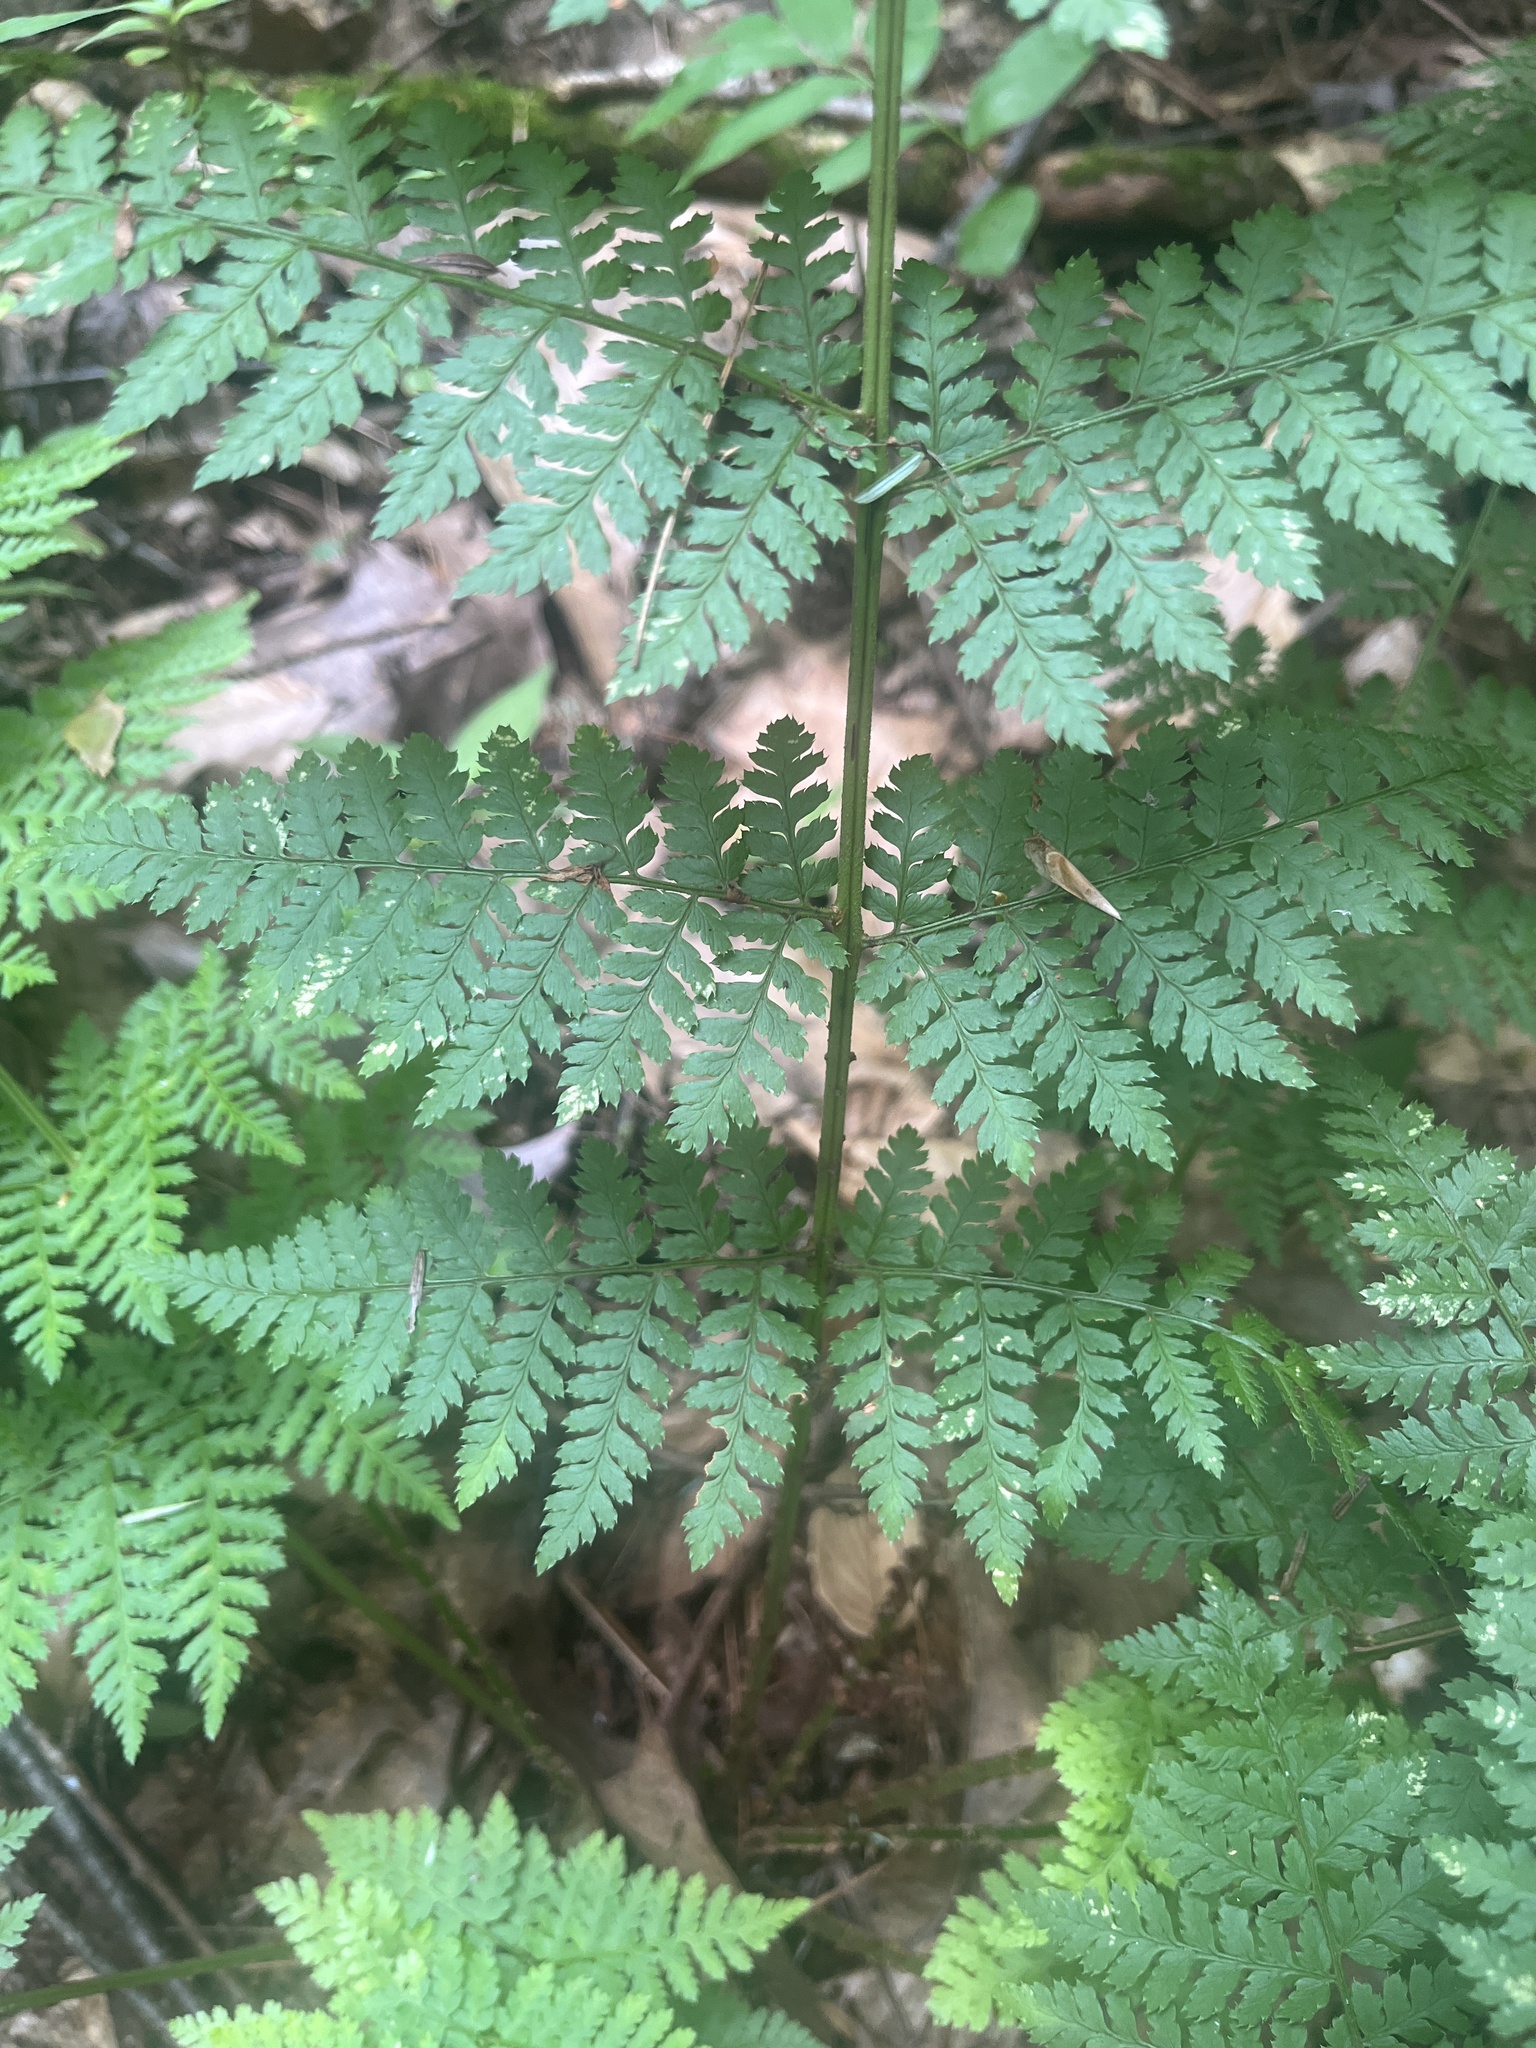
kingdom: Plantae
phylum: Tracheophyta
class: Polypodiopsida
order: Polypodiales
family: Dryopteridaceae
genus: Dryopteris
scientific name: Dryopteris intermedia
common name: Evergreen wood fern
